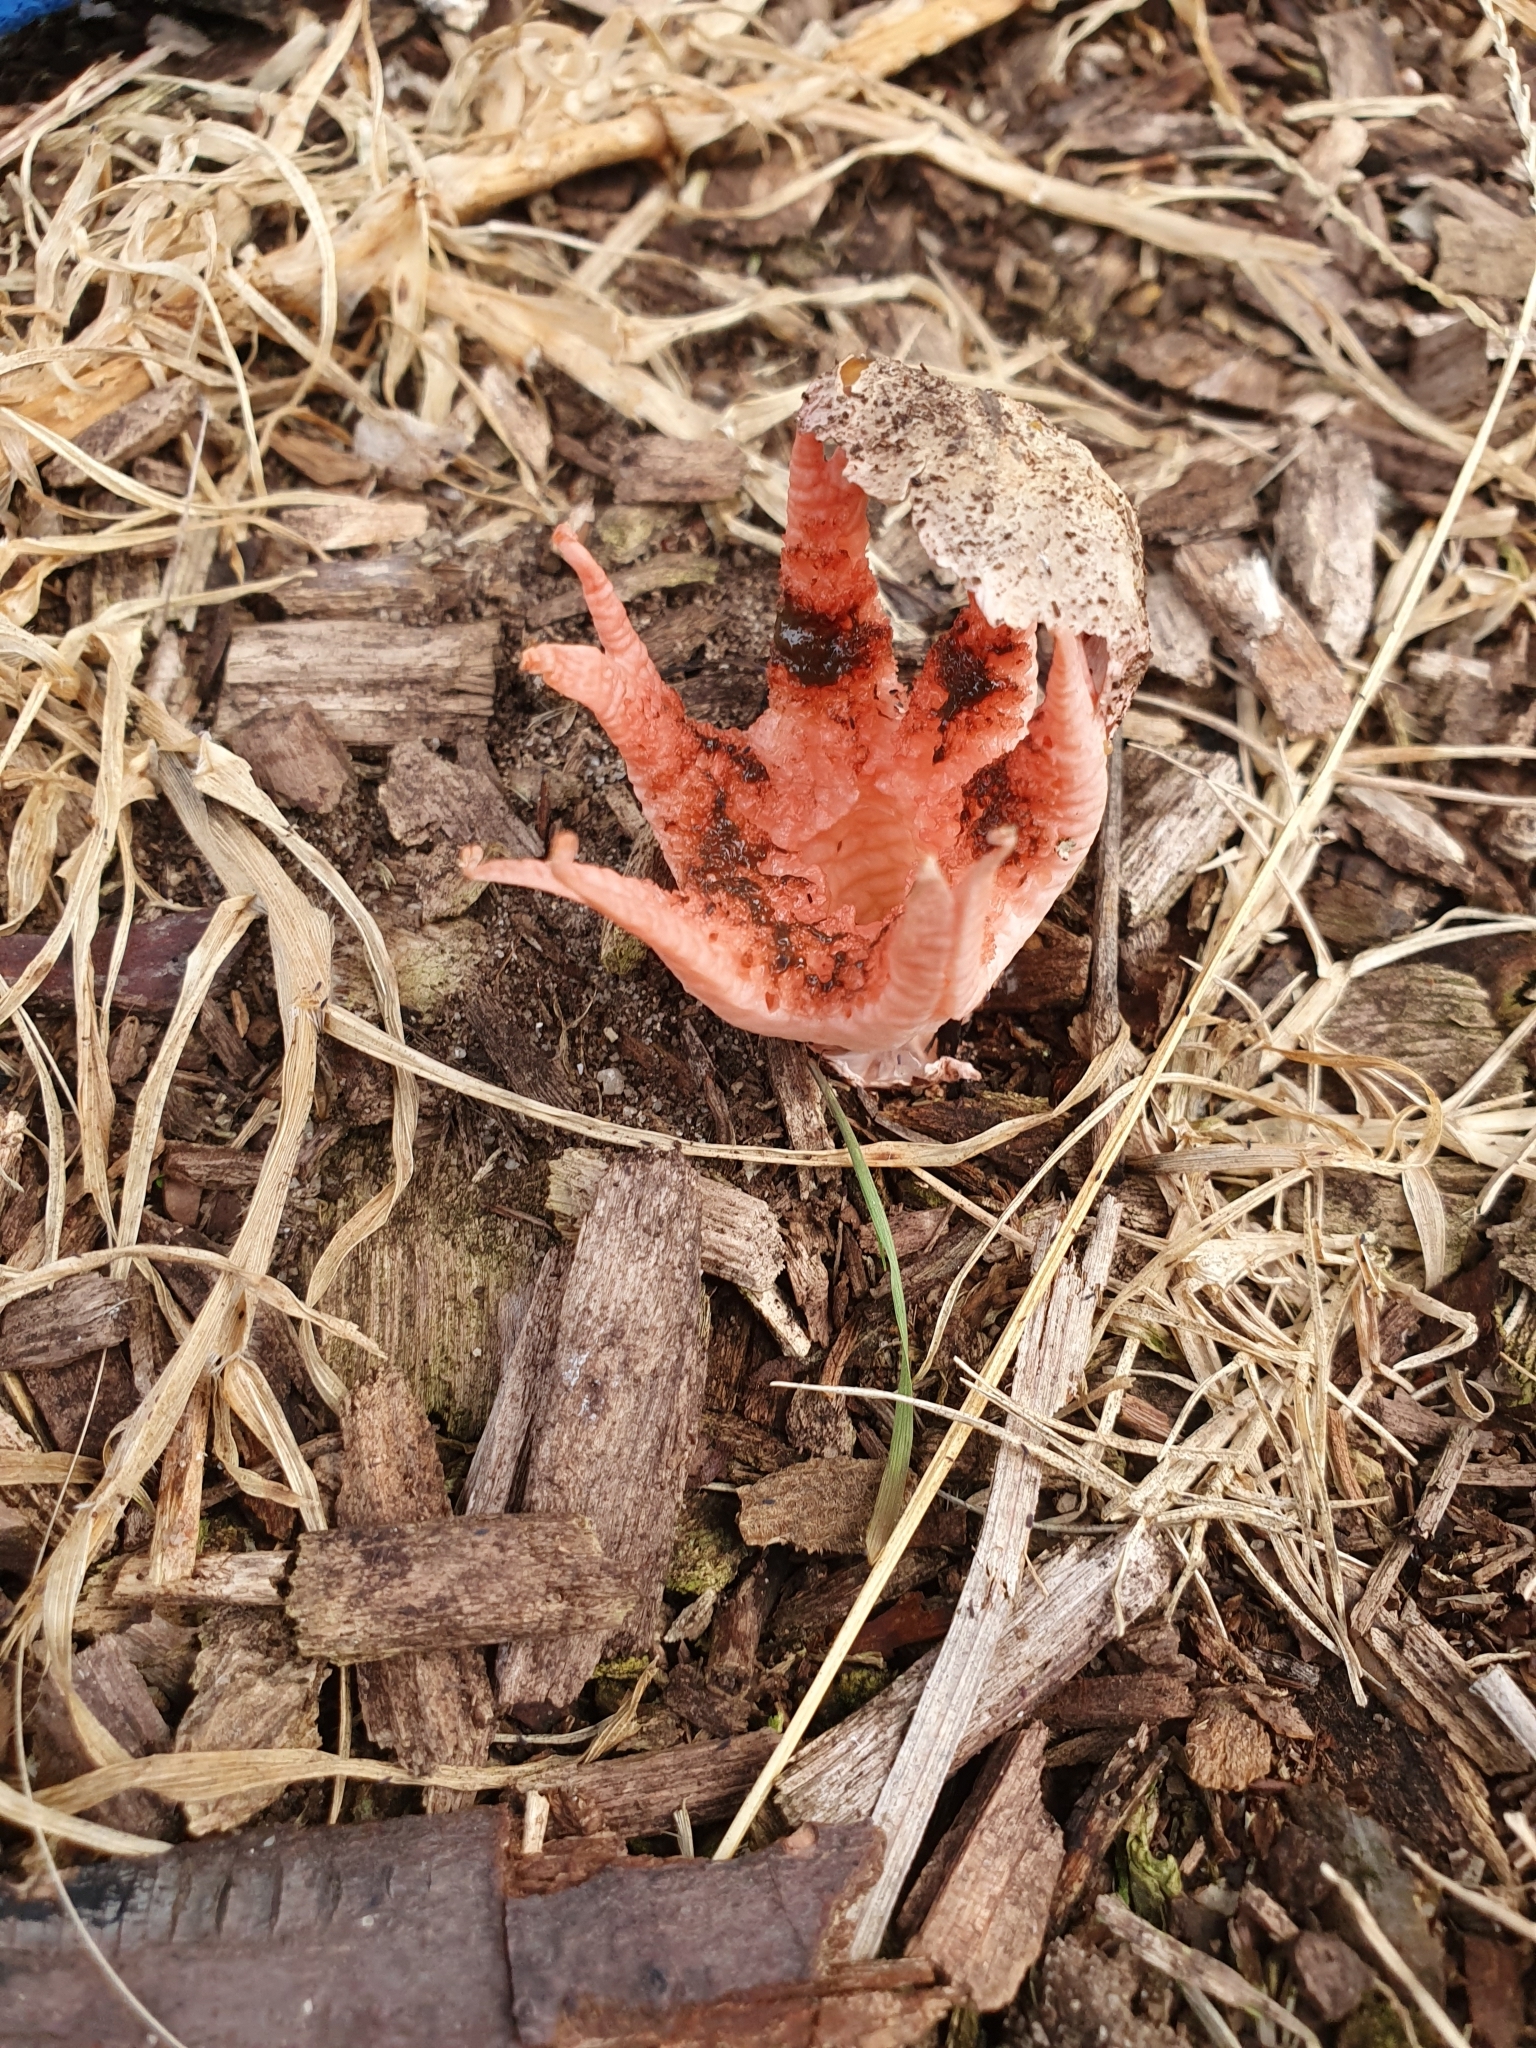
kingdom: Fungi
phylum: Basidiomycota
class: Agaricomycetes
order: Phallales
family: Phallaceae
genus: Clathrus
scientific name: Clathrus archeri
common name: Devil's fingers
